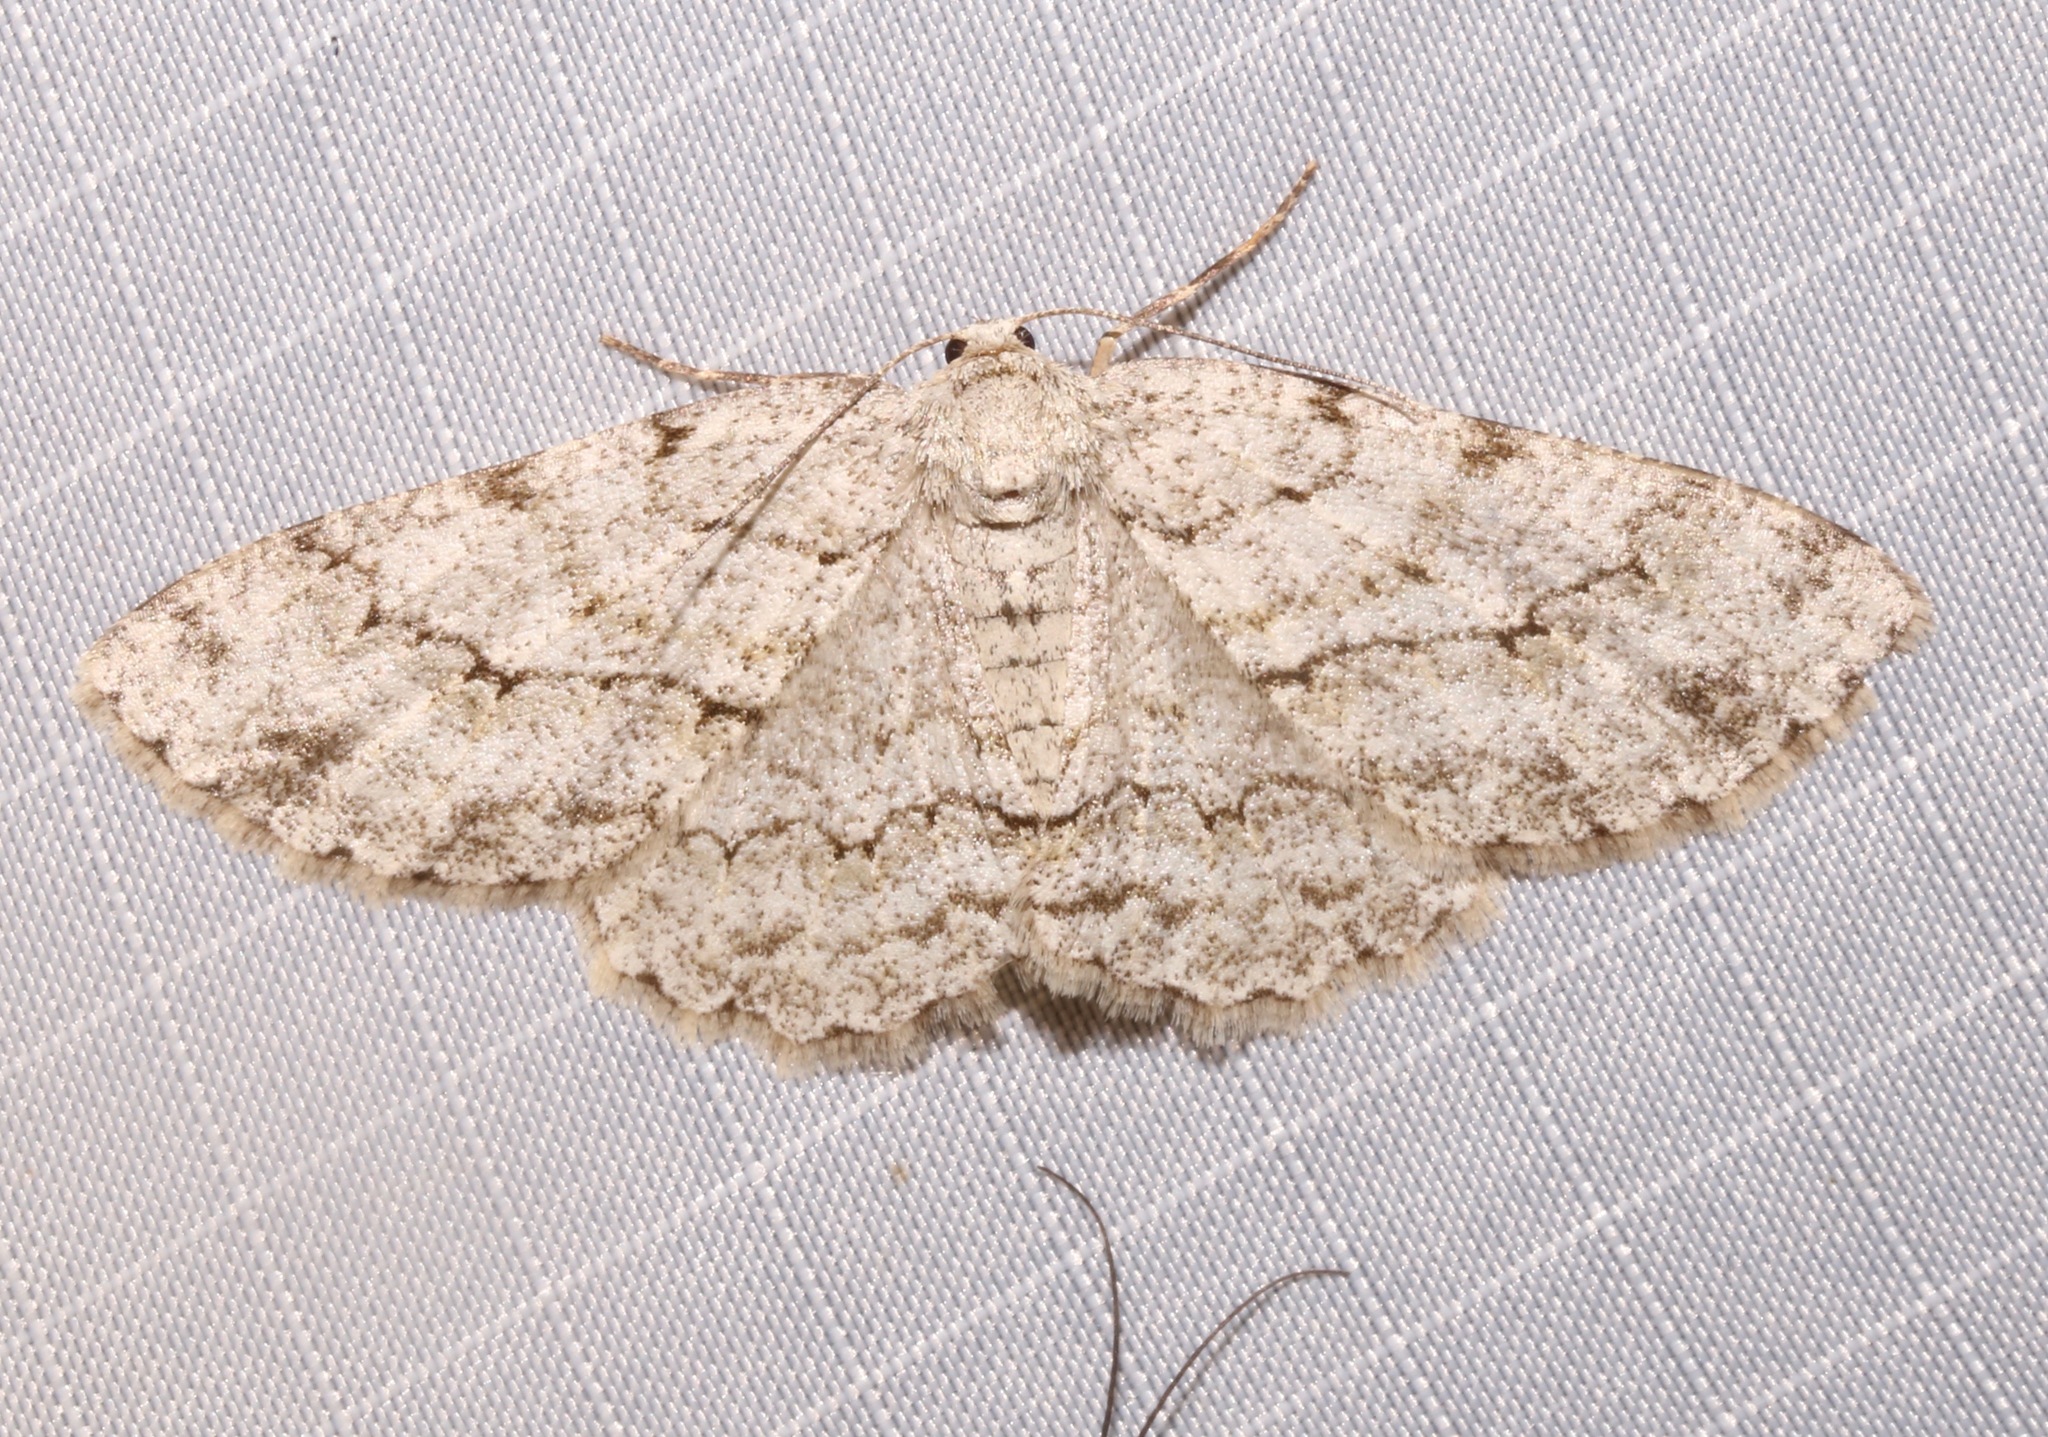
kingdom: Animalia
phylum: Arthropoda
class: Insecta
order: Lepidoptera
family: Geometridae
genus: Ectropis
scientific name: Ectropis crepuscularia
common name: Engrailed
